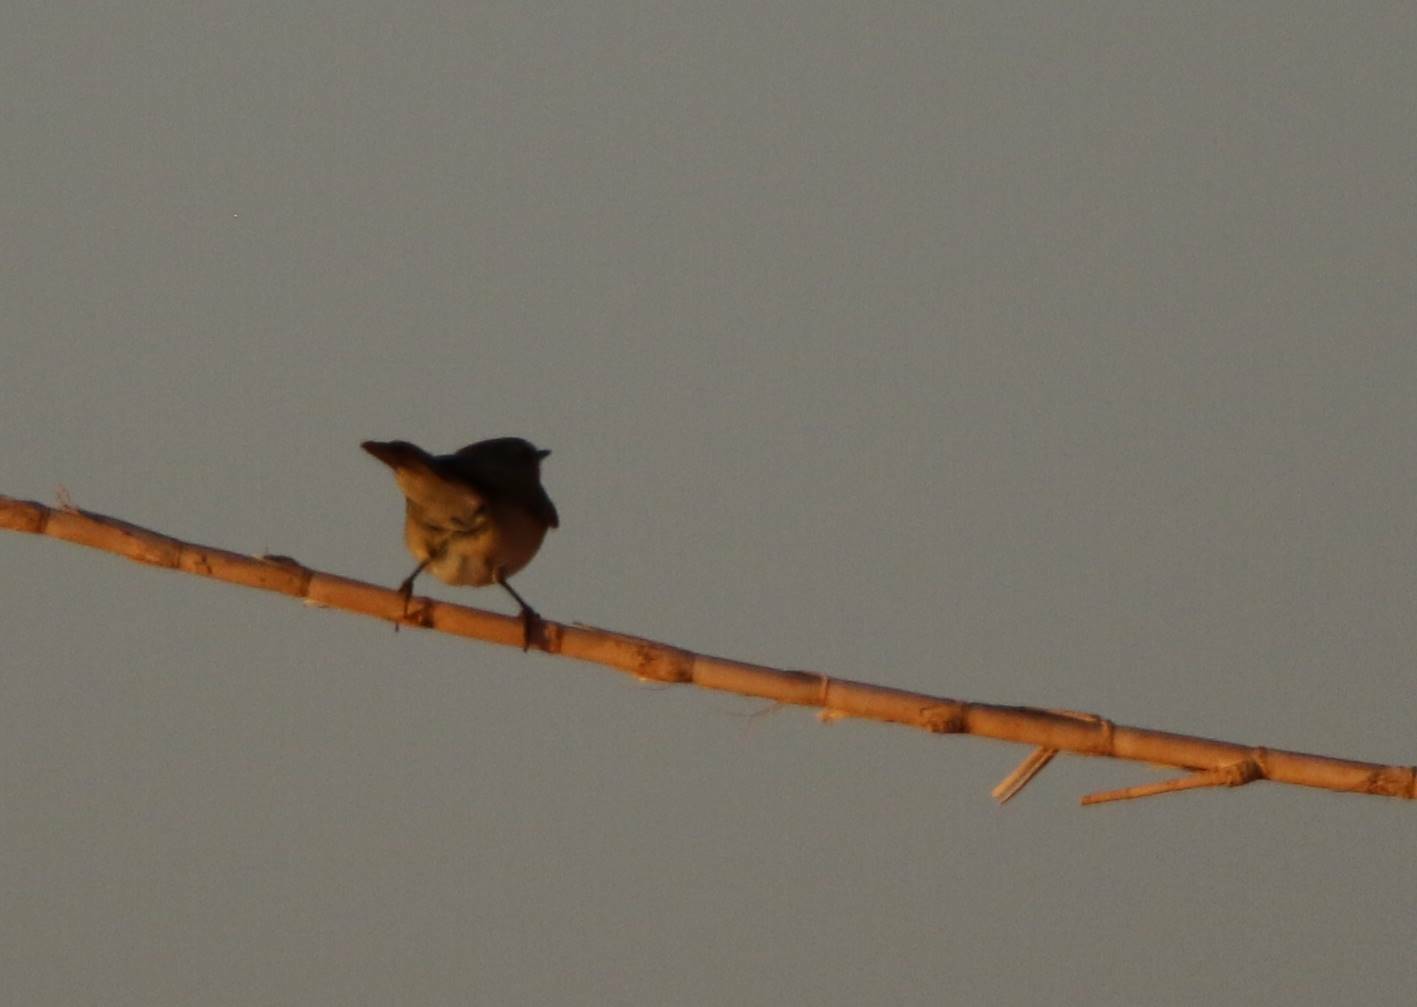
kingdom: Animalia
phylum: Chordata
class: Aves
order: Passeriformes
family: Phylloscopidae
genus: Phylloscopus
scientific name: Phylloscopus collybita
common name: Common chiffchaff
